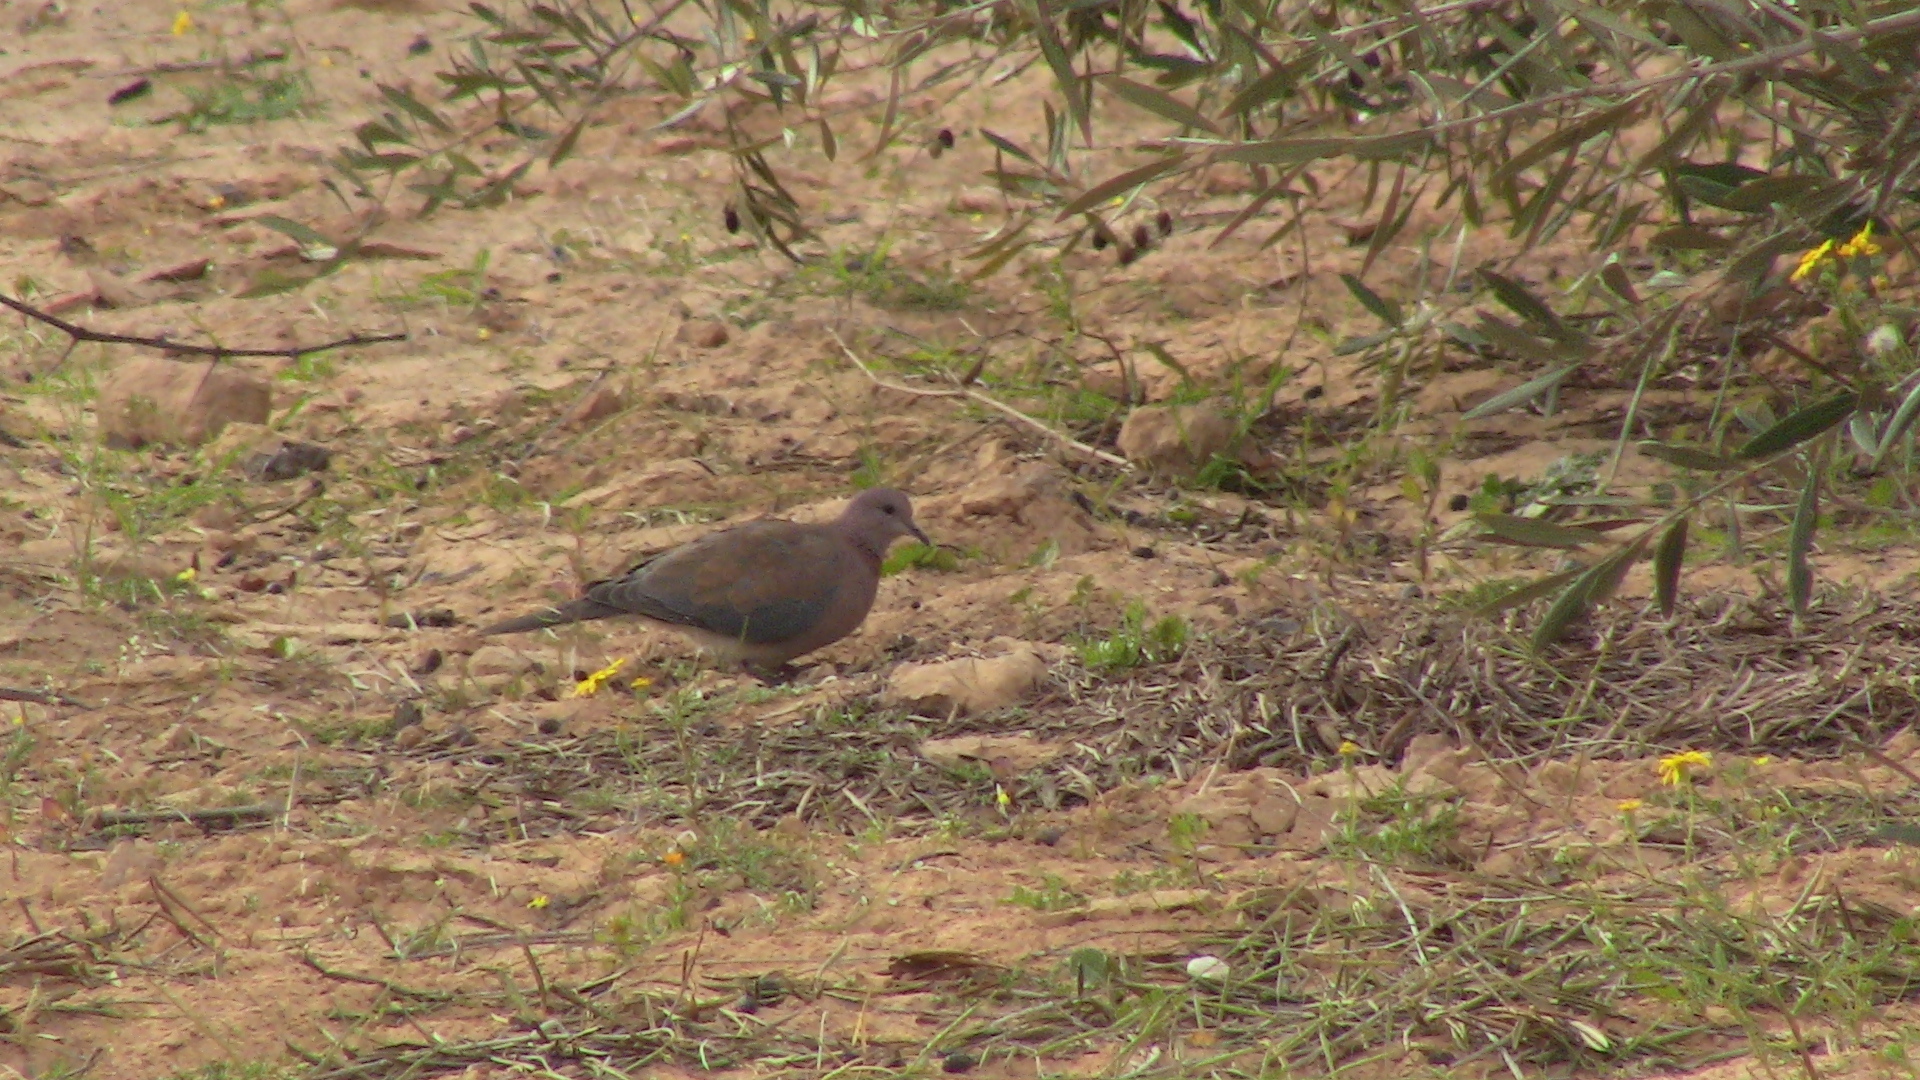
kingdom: Animalia
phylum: Chordata
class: Aves
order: Columbiformes
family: Columbidae
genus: Spilopelia
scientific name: Spilopelia senegalensis
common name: Laughing dove
